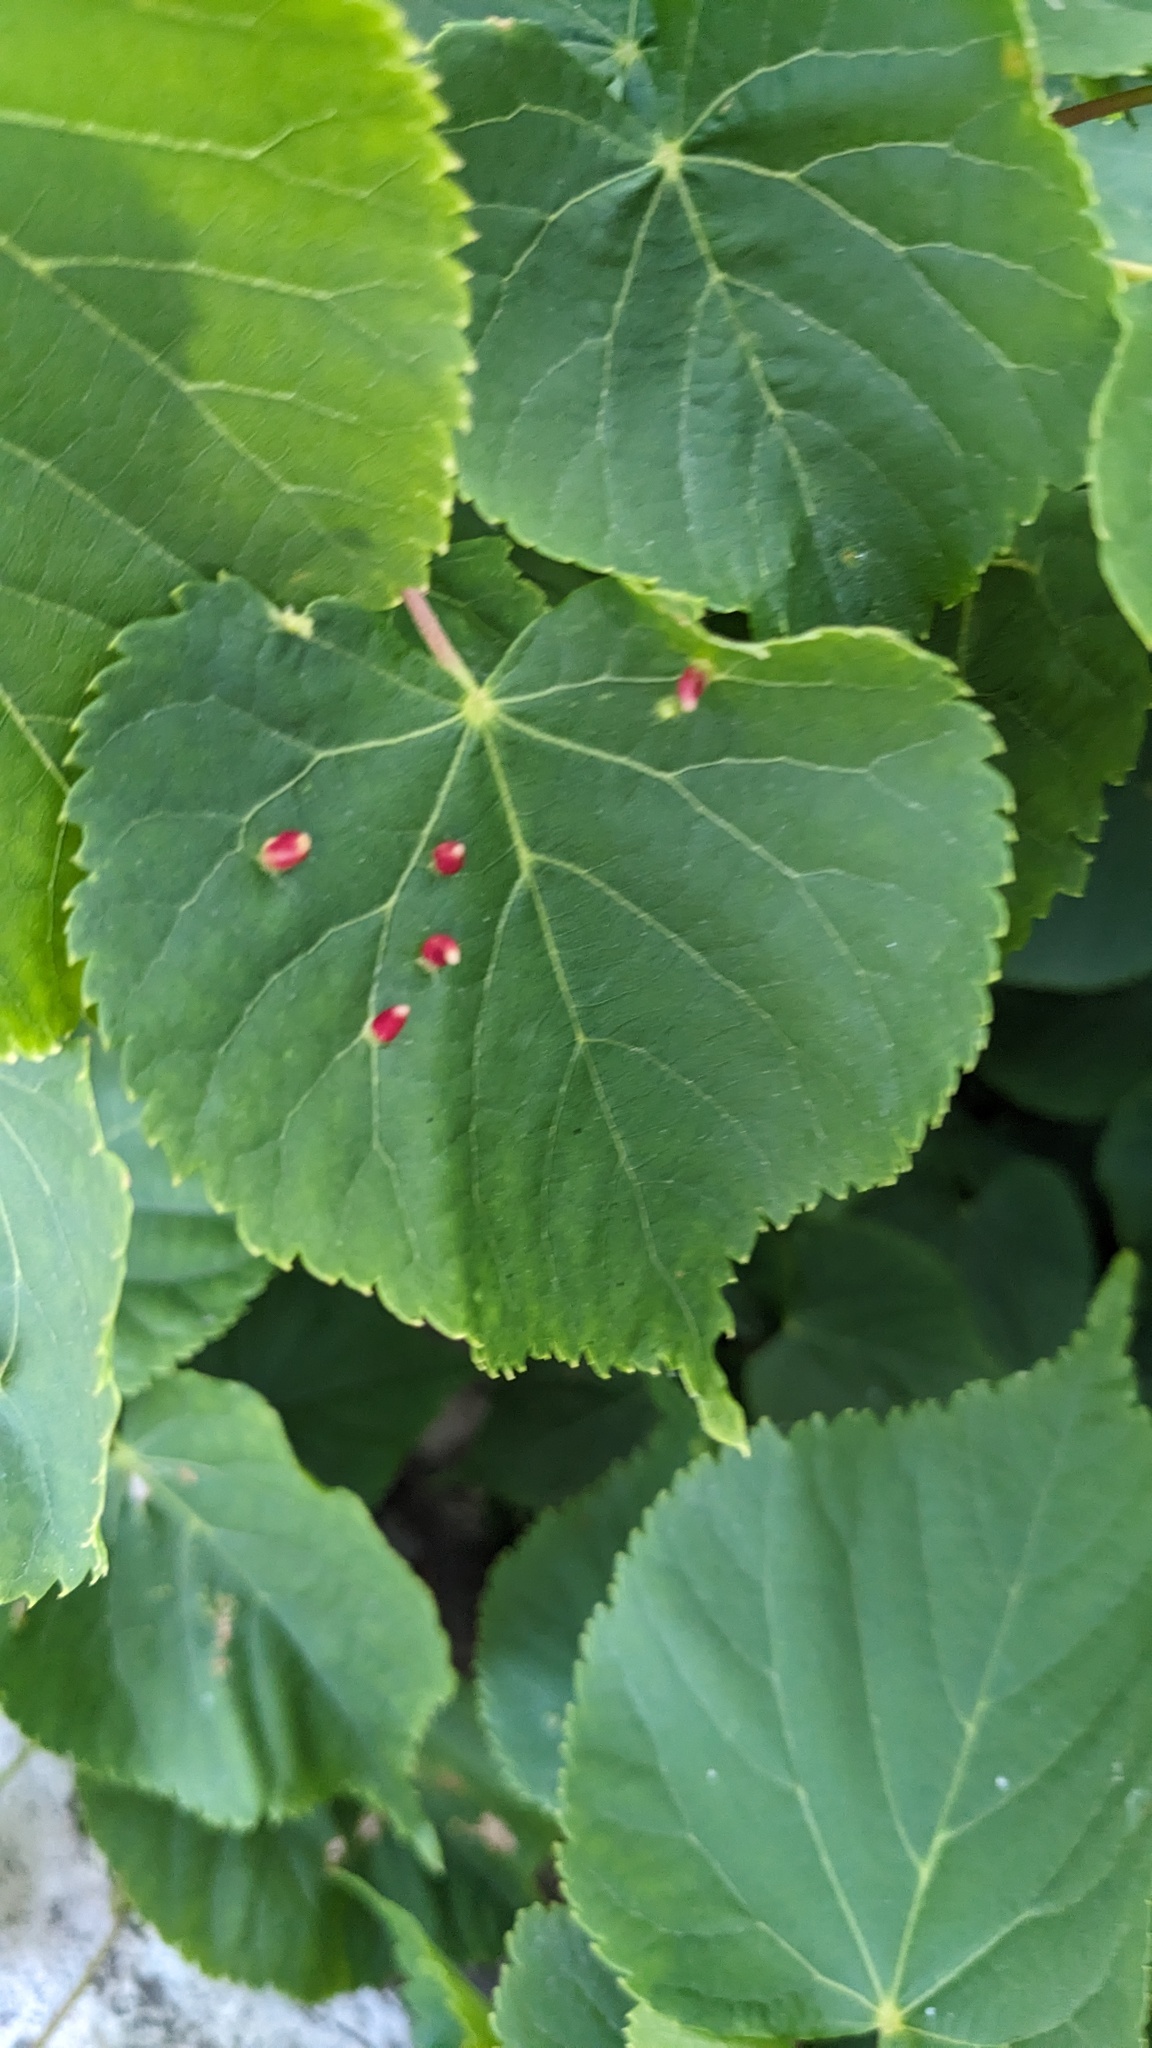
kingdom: Animalia
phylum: Arthropoda
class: Arachnida
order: Trombidiformes
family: Eriophyidae
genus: Eriophyes
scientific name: Eriophyes tiliae
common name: Red nail gall mite
